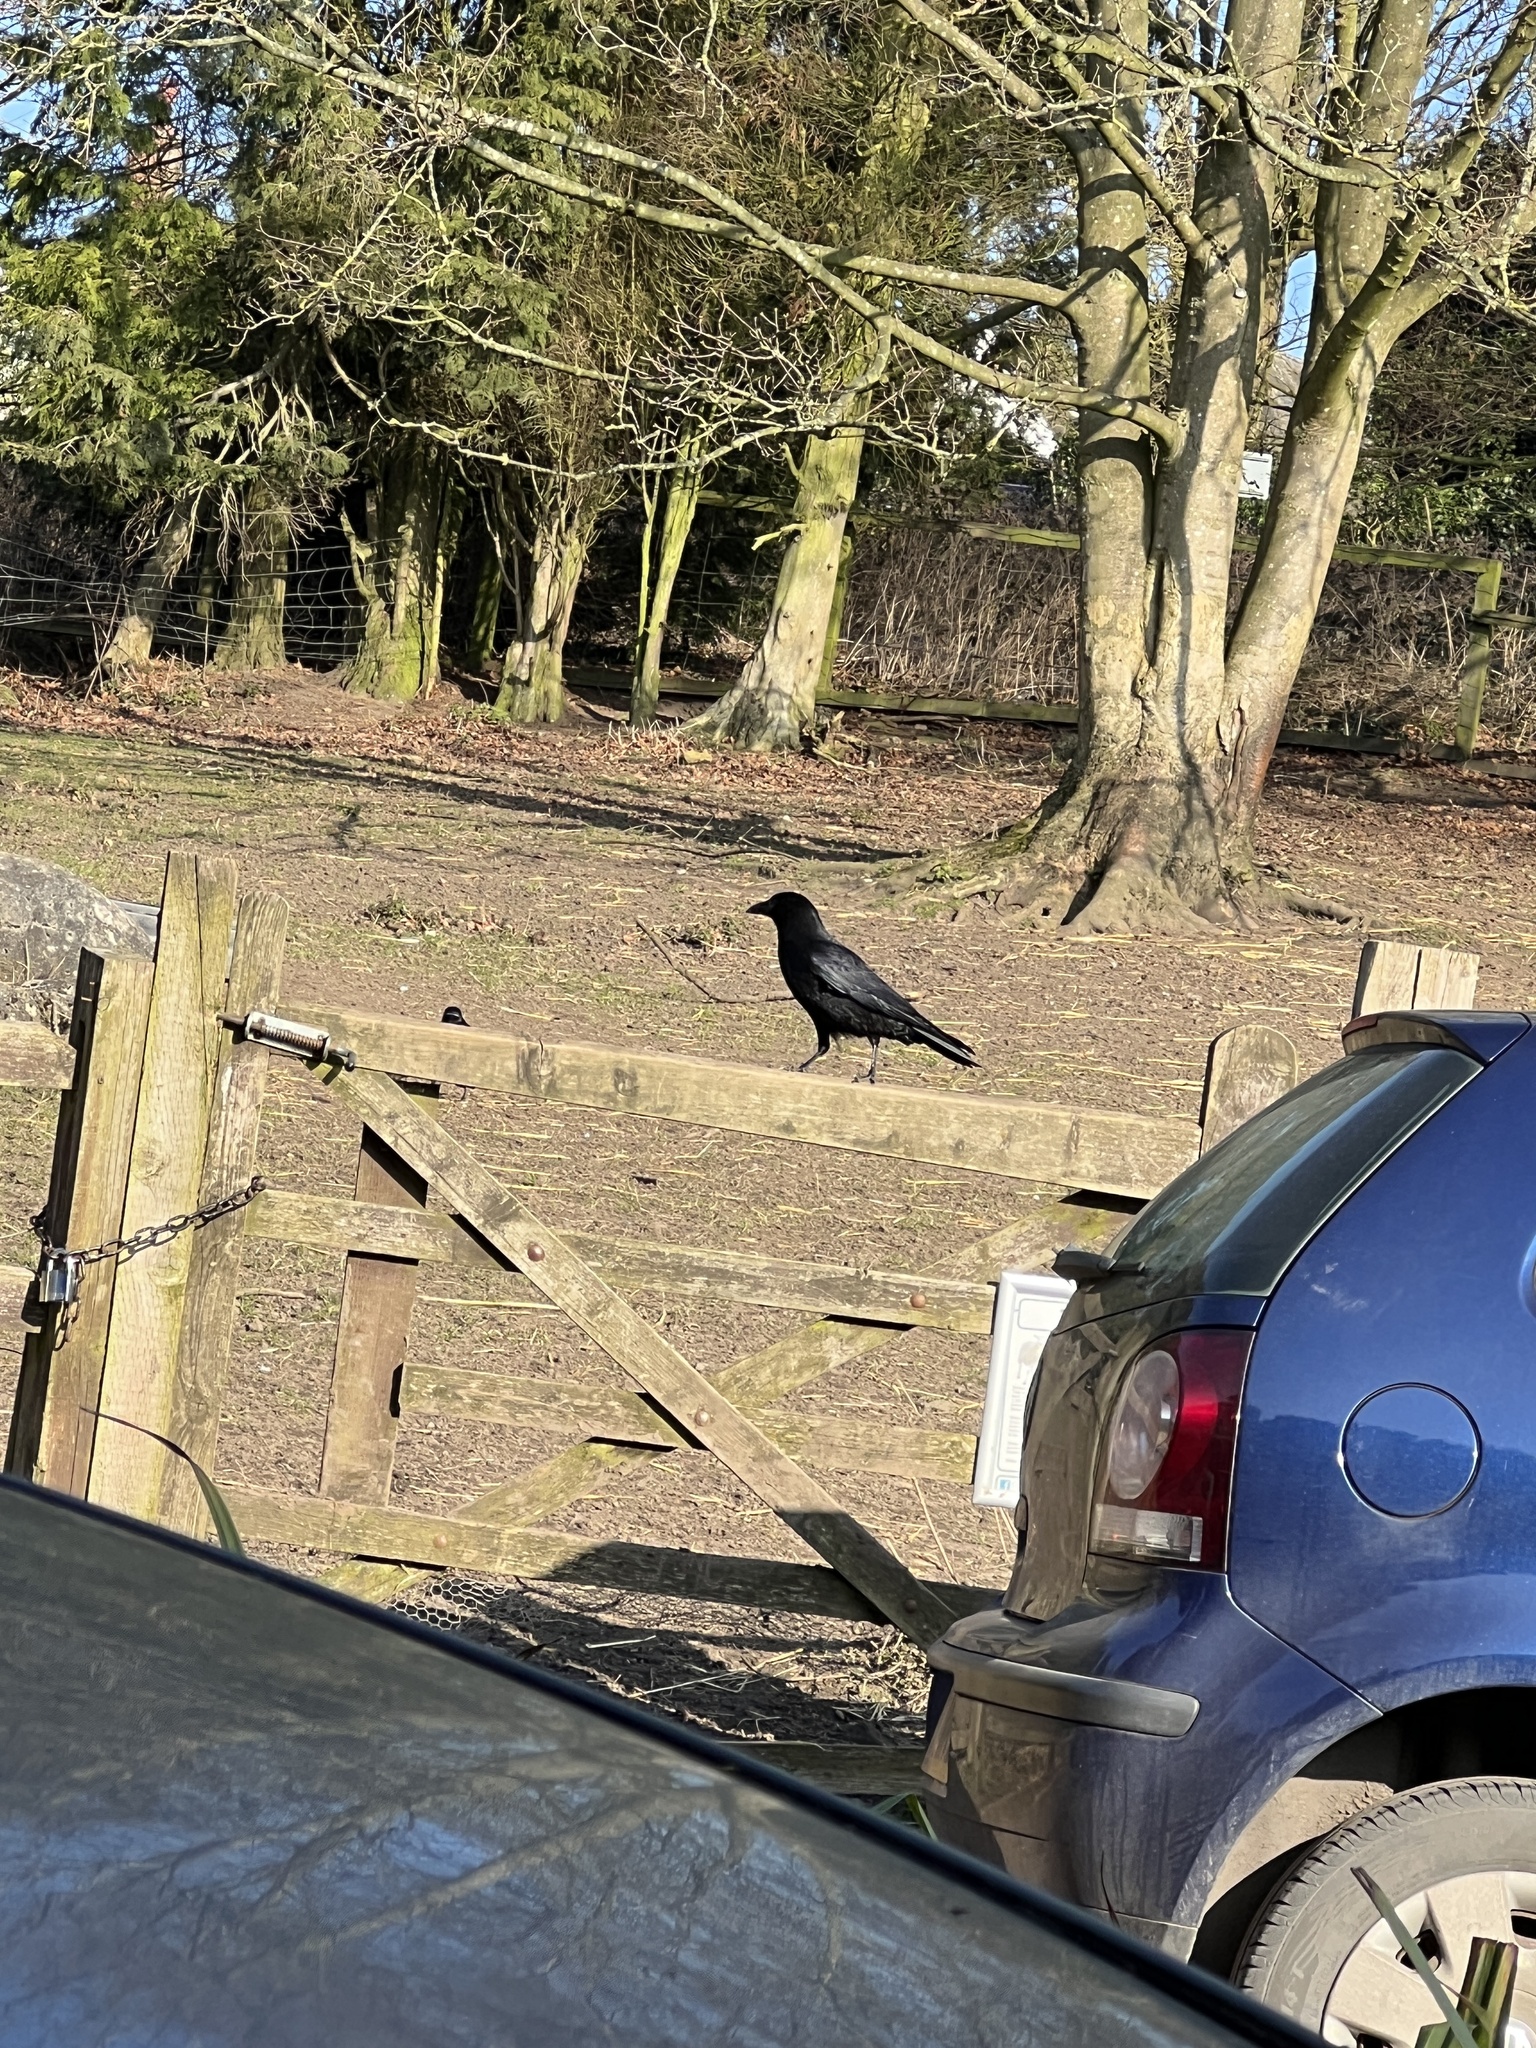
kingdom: Animalia
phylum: Chordata
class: Aves
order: Passeriformes
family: Corvidae
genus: Corvus
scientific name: Corvus corone
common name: Carrion crow
